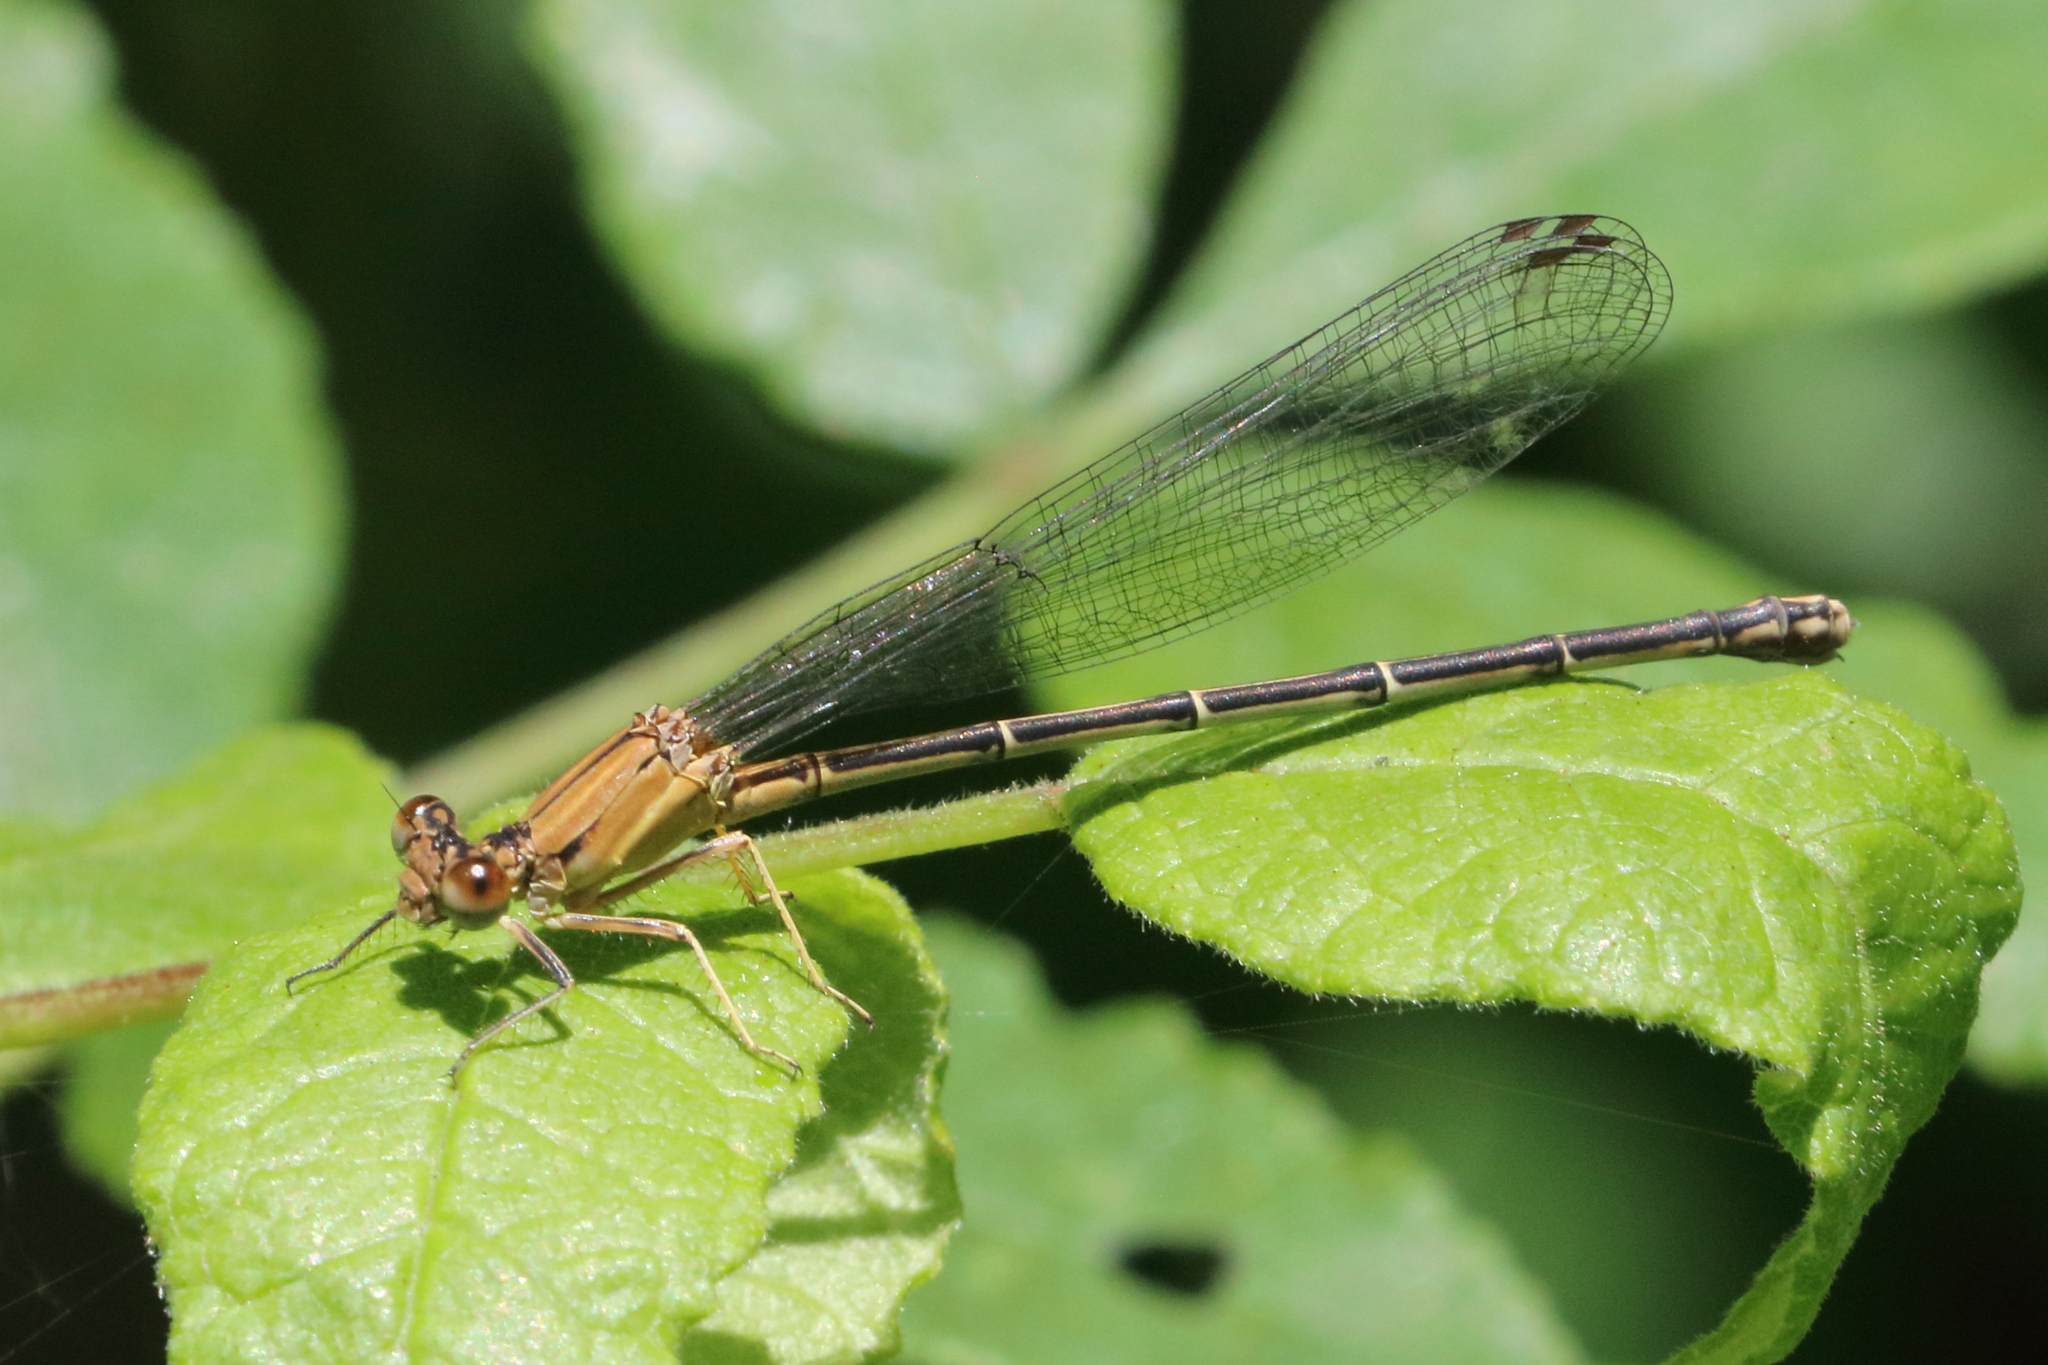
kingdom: Animalia
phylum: Arthropoda
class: Insecta
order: Odonata
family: Coenagrionidae
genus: Argia
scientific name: Argia apicalis
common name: Blue-fronted dancer
